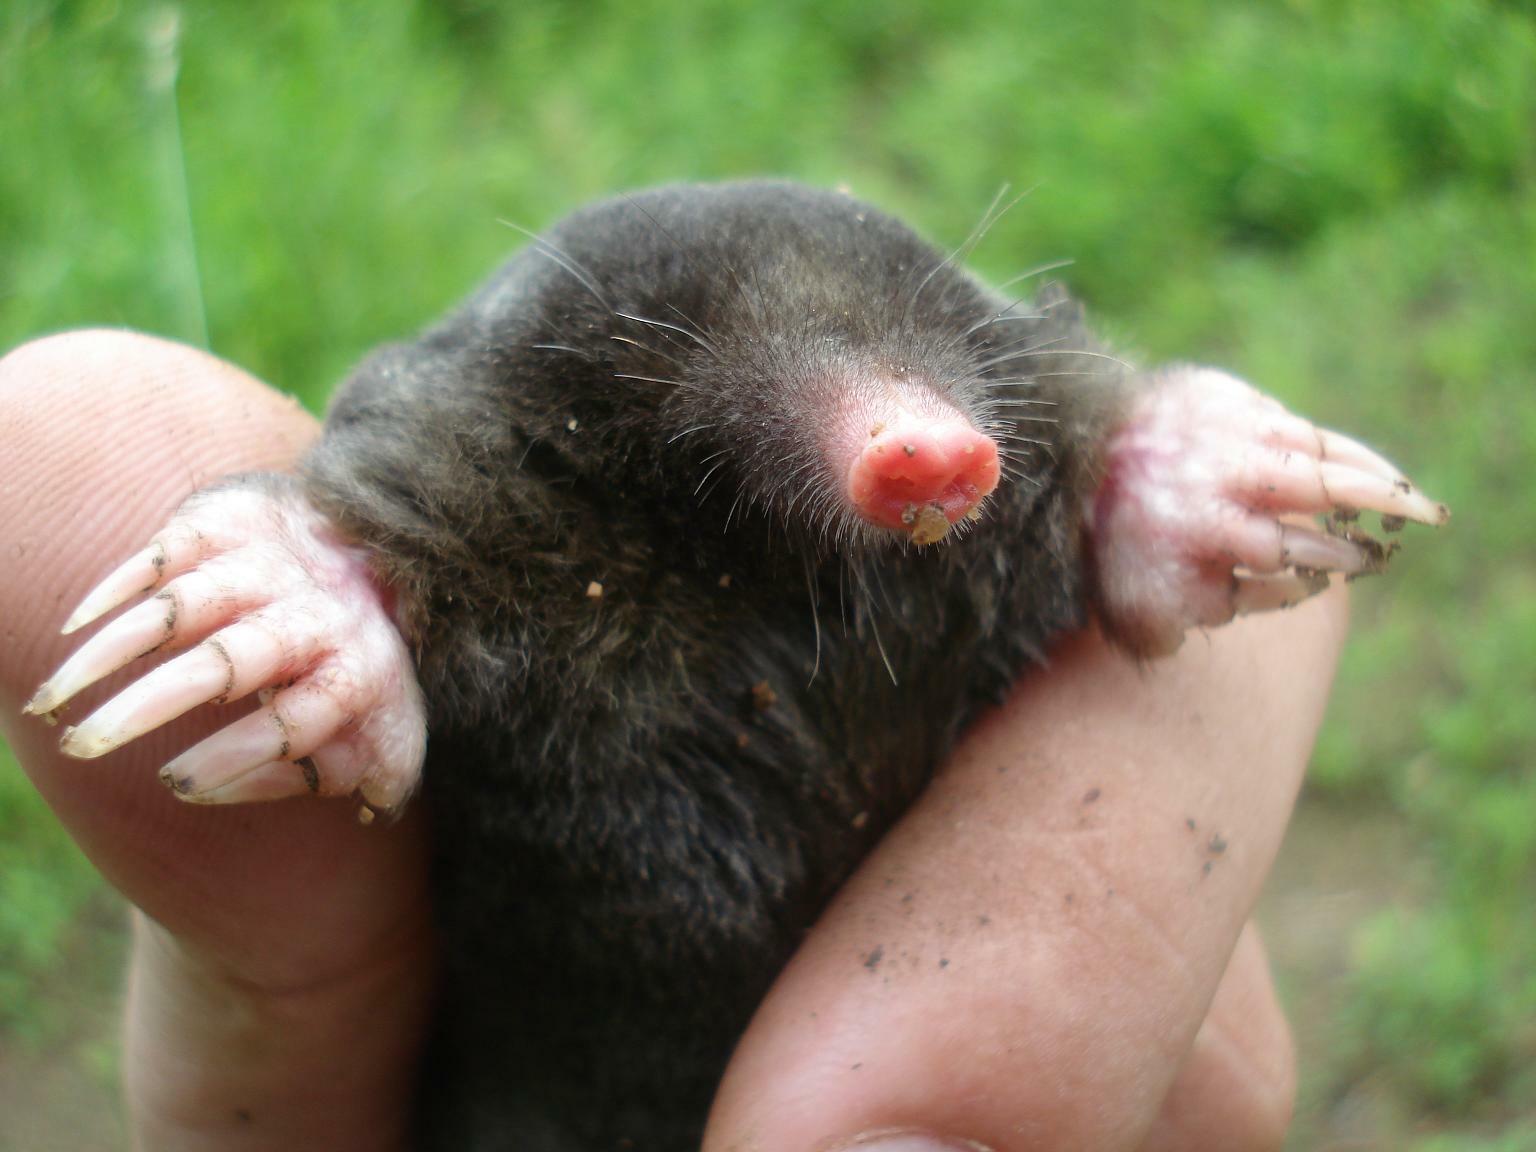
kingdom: Animalia
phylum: Chordata
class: Mammalia
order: Soricomorpha
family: Talpidae
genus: Talpa
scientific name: Talpa europaea
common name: European mole
